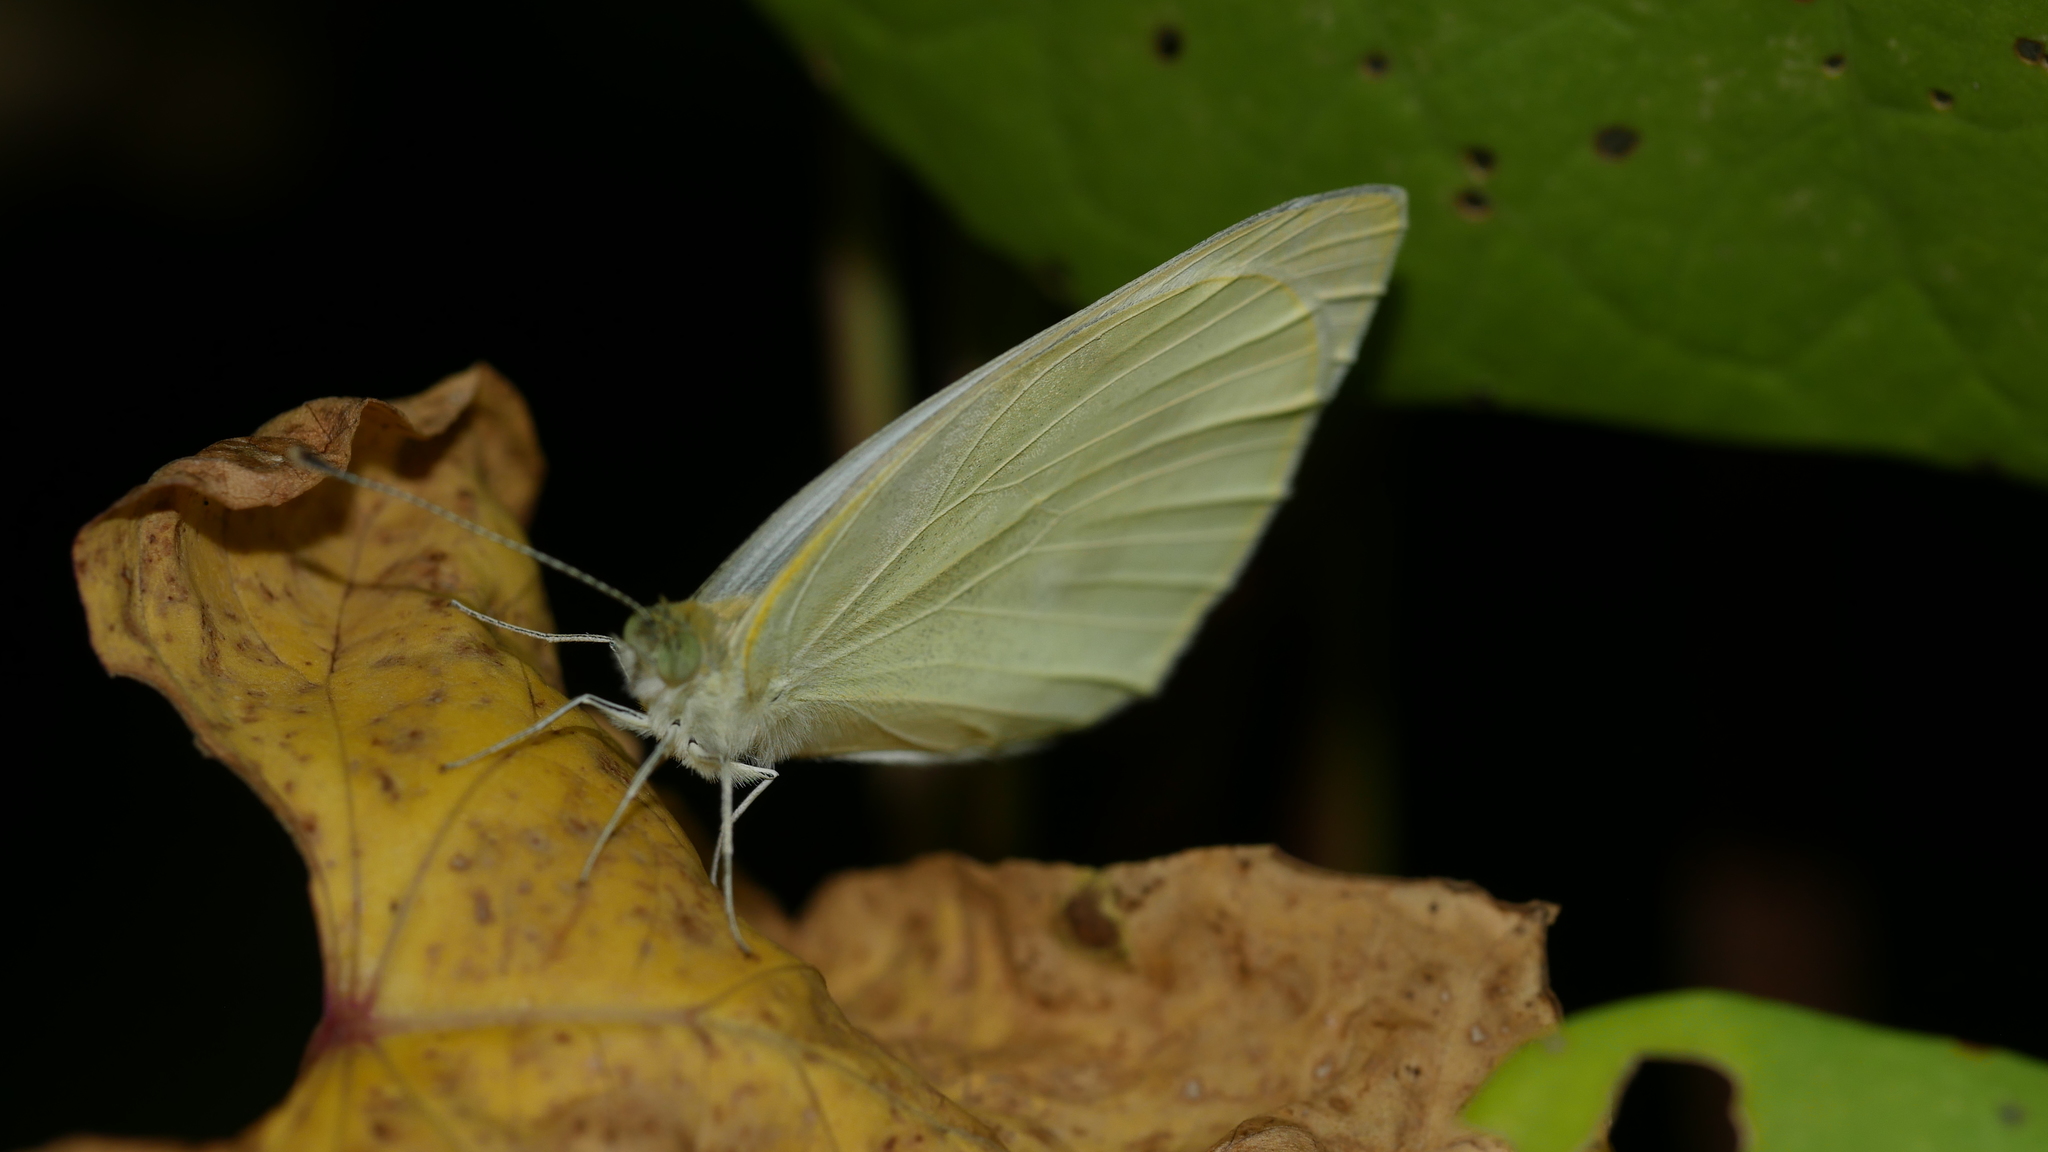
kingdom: Animalia
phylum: Arthropoda
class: Insecta
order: Lepidoptera
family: Pieridae
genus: Pieris
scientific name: Pieris rapae
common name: Small white
